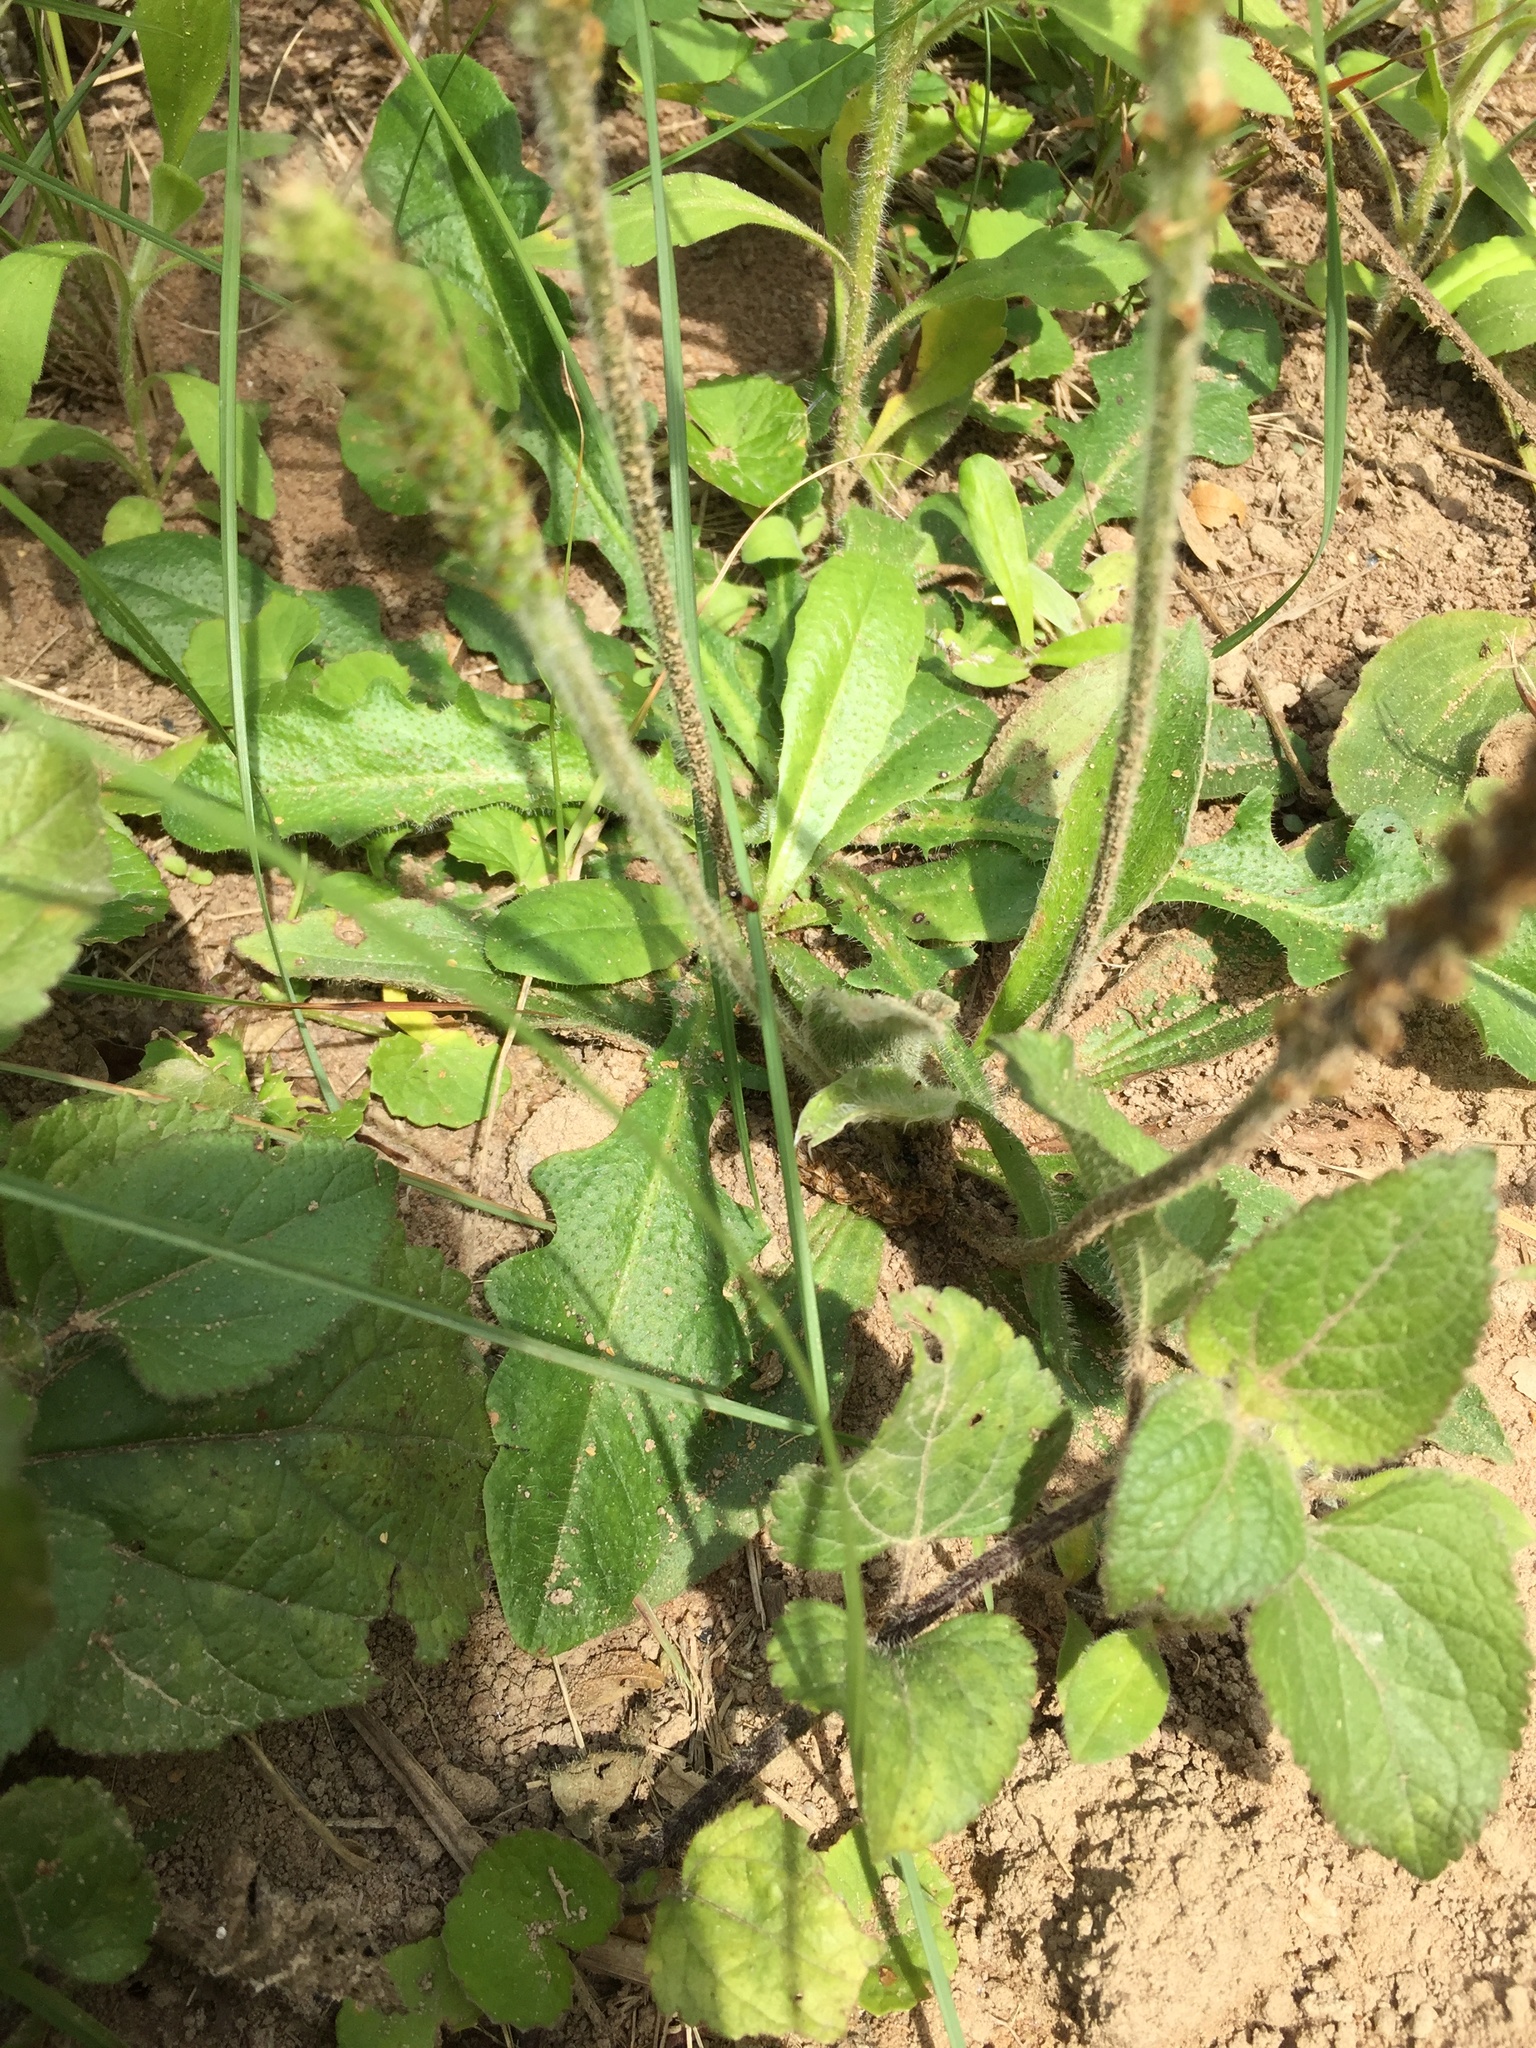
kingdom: Plantae
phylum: Tracheophyta
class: Magnoliopsida
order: Lamiales
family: Plantaginaceae
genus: Plantago
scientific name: Plantago tomentosa
